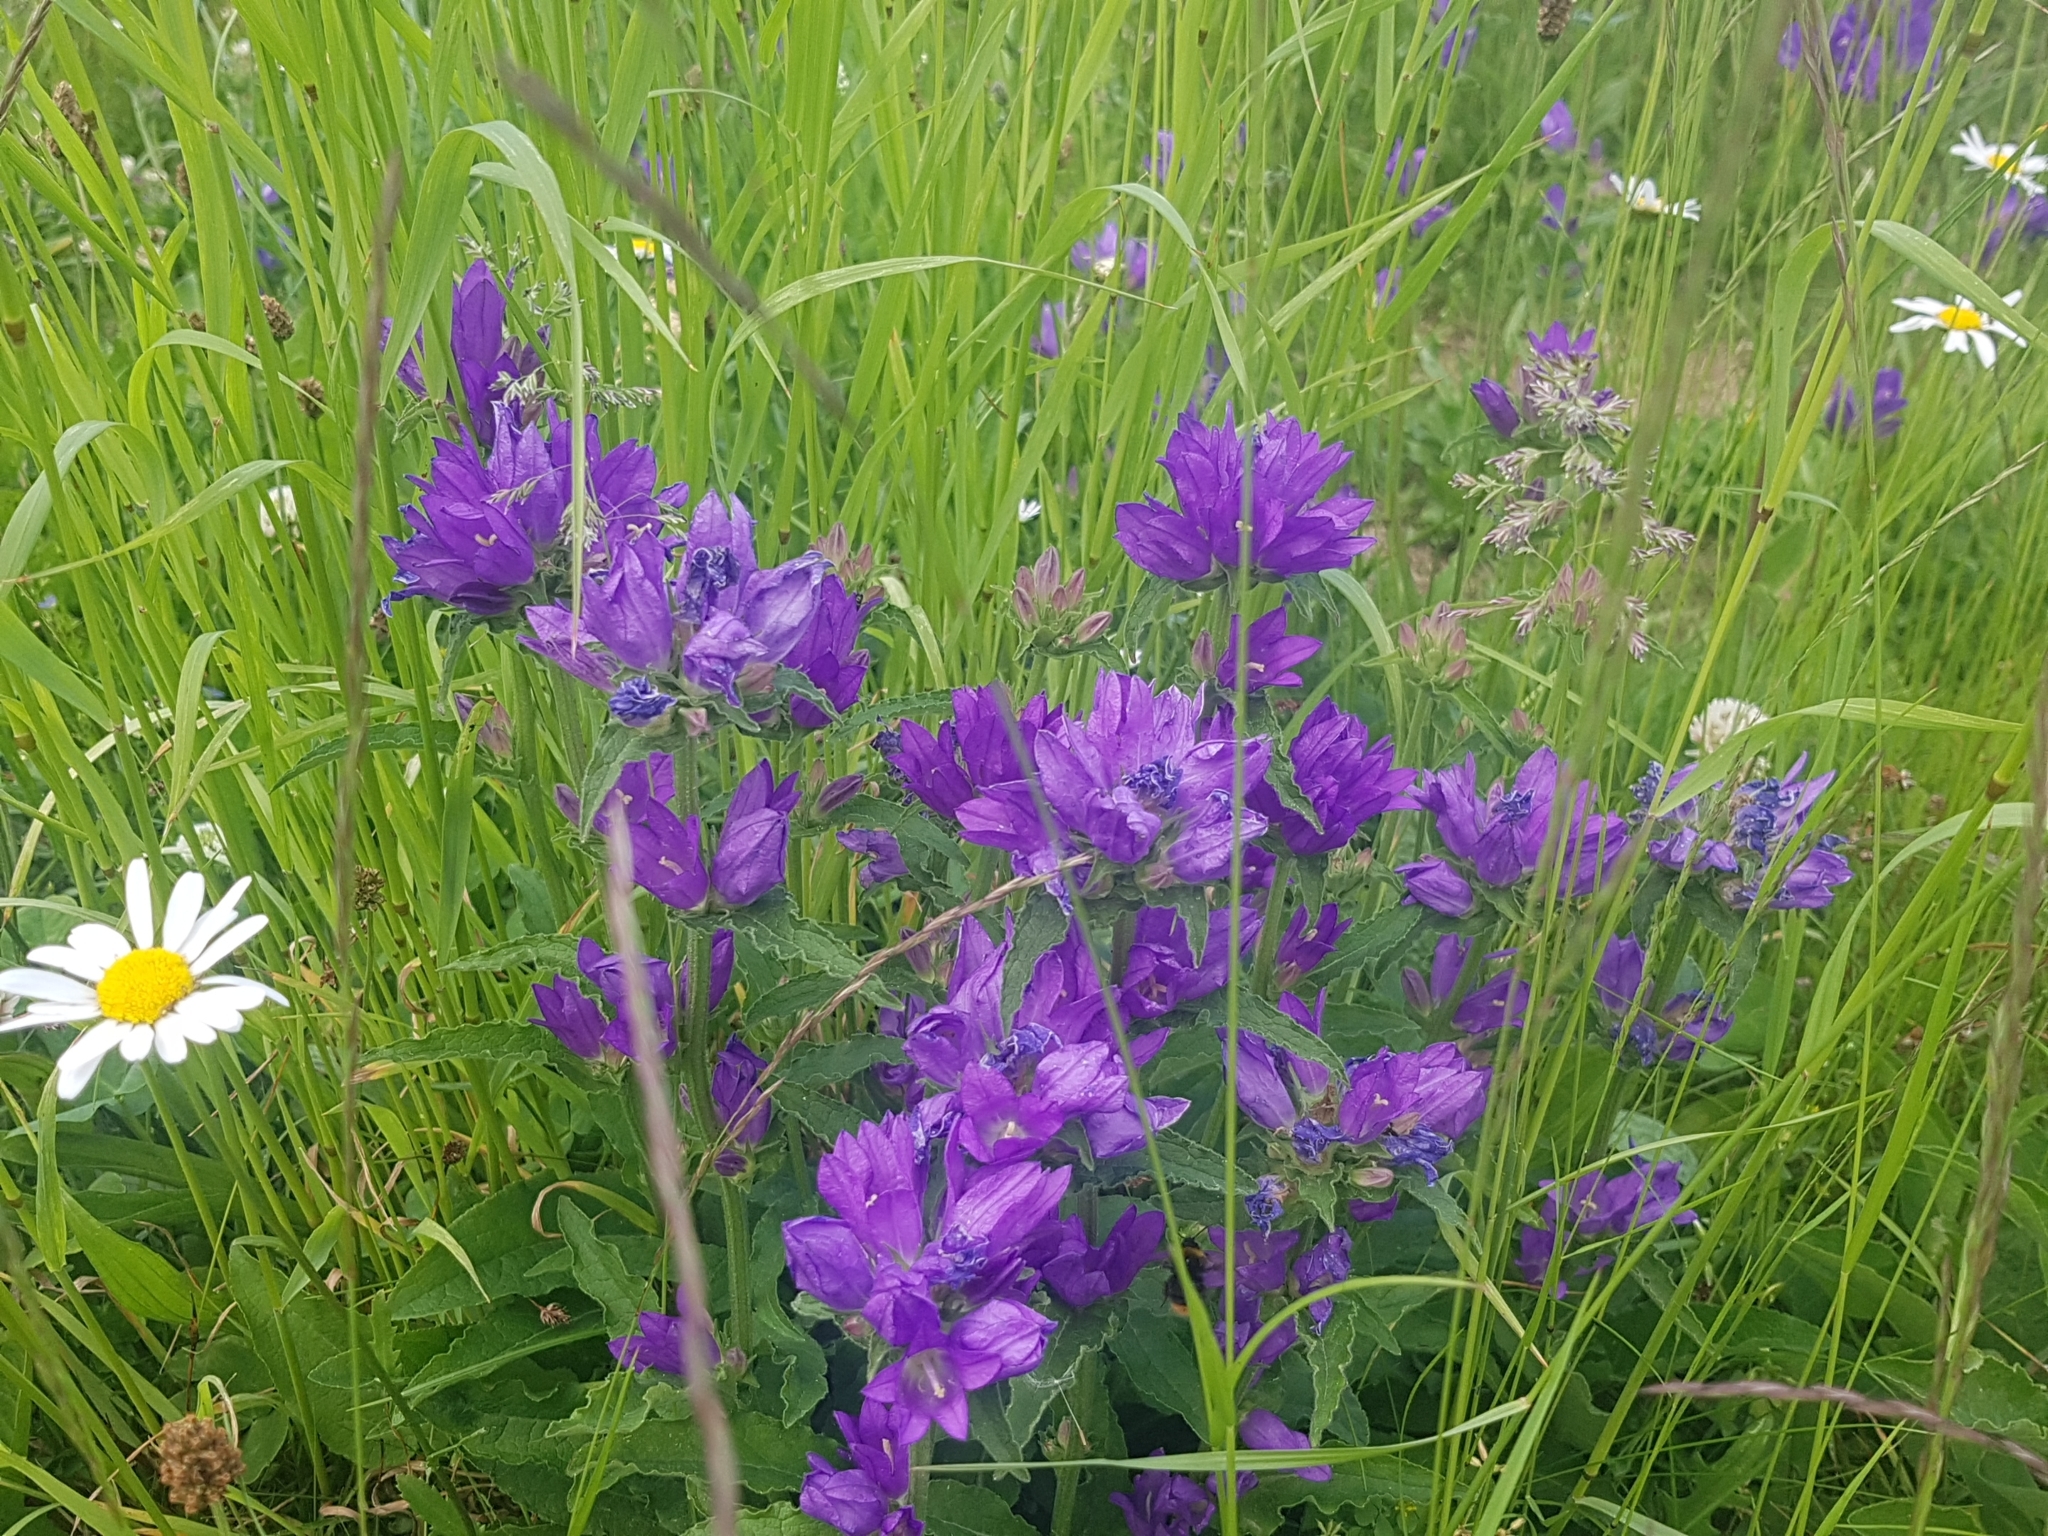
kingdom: Plantae
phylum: Tracheophyta
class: Magnoliopsida
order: Asterales
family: Campanulaceae
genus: Campanula
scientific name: Campanula glomerata
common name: Clustered bellflower
